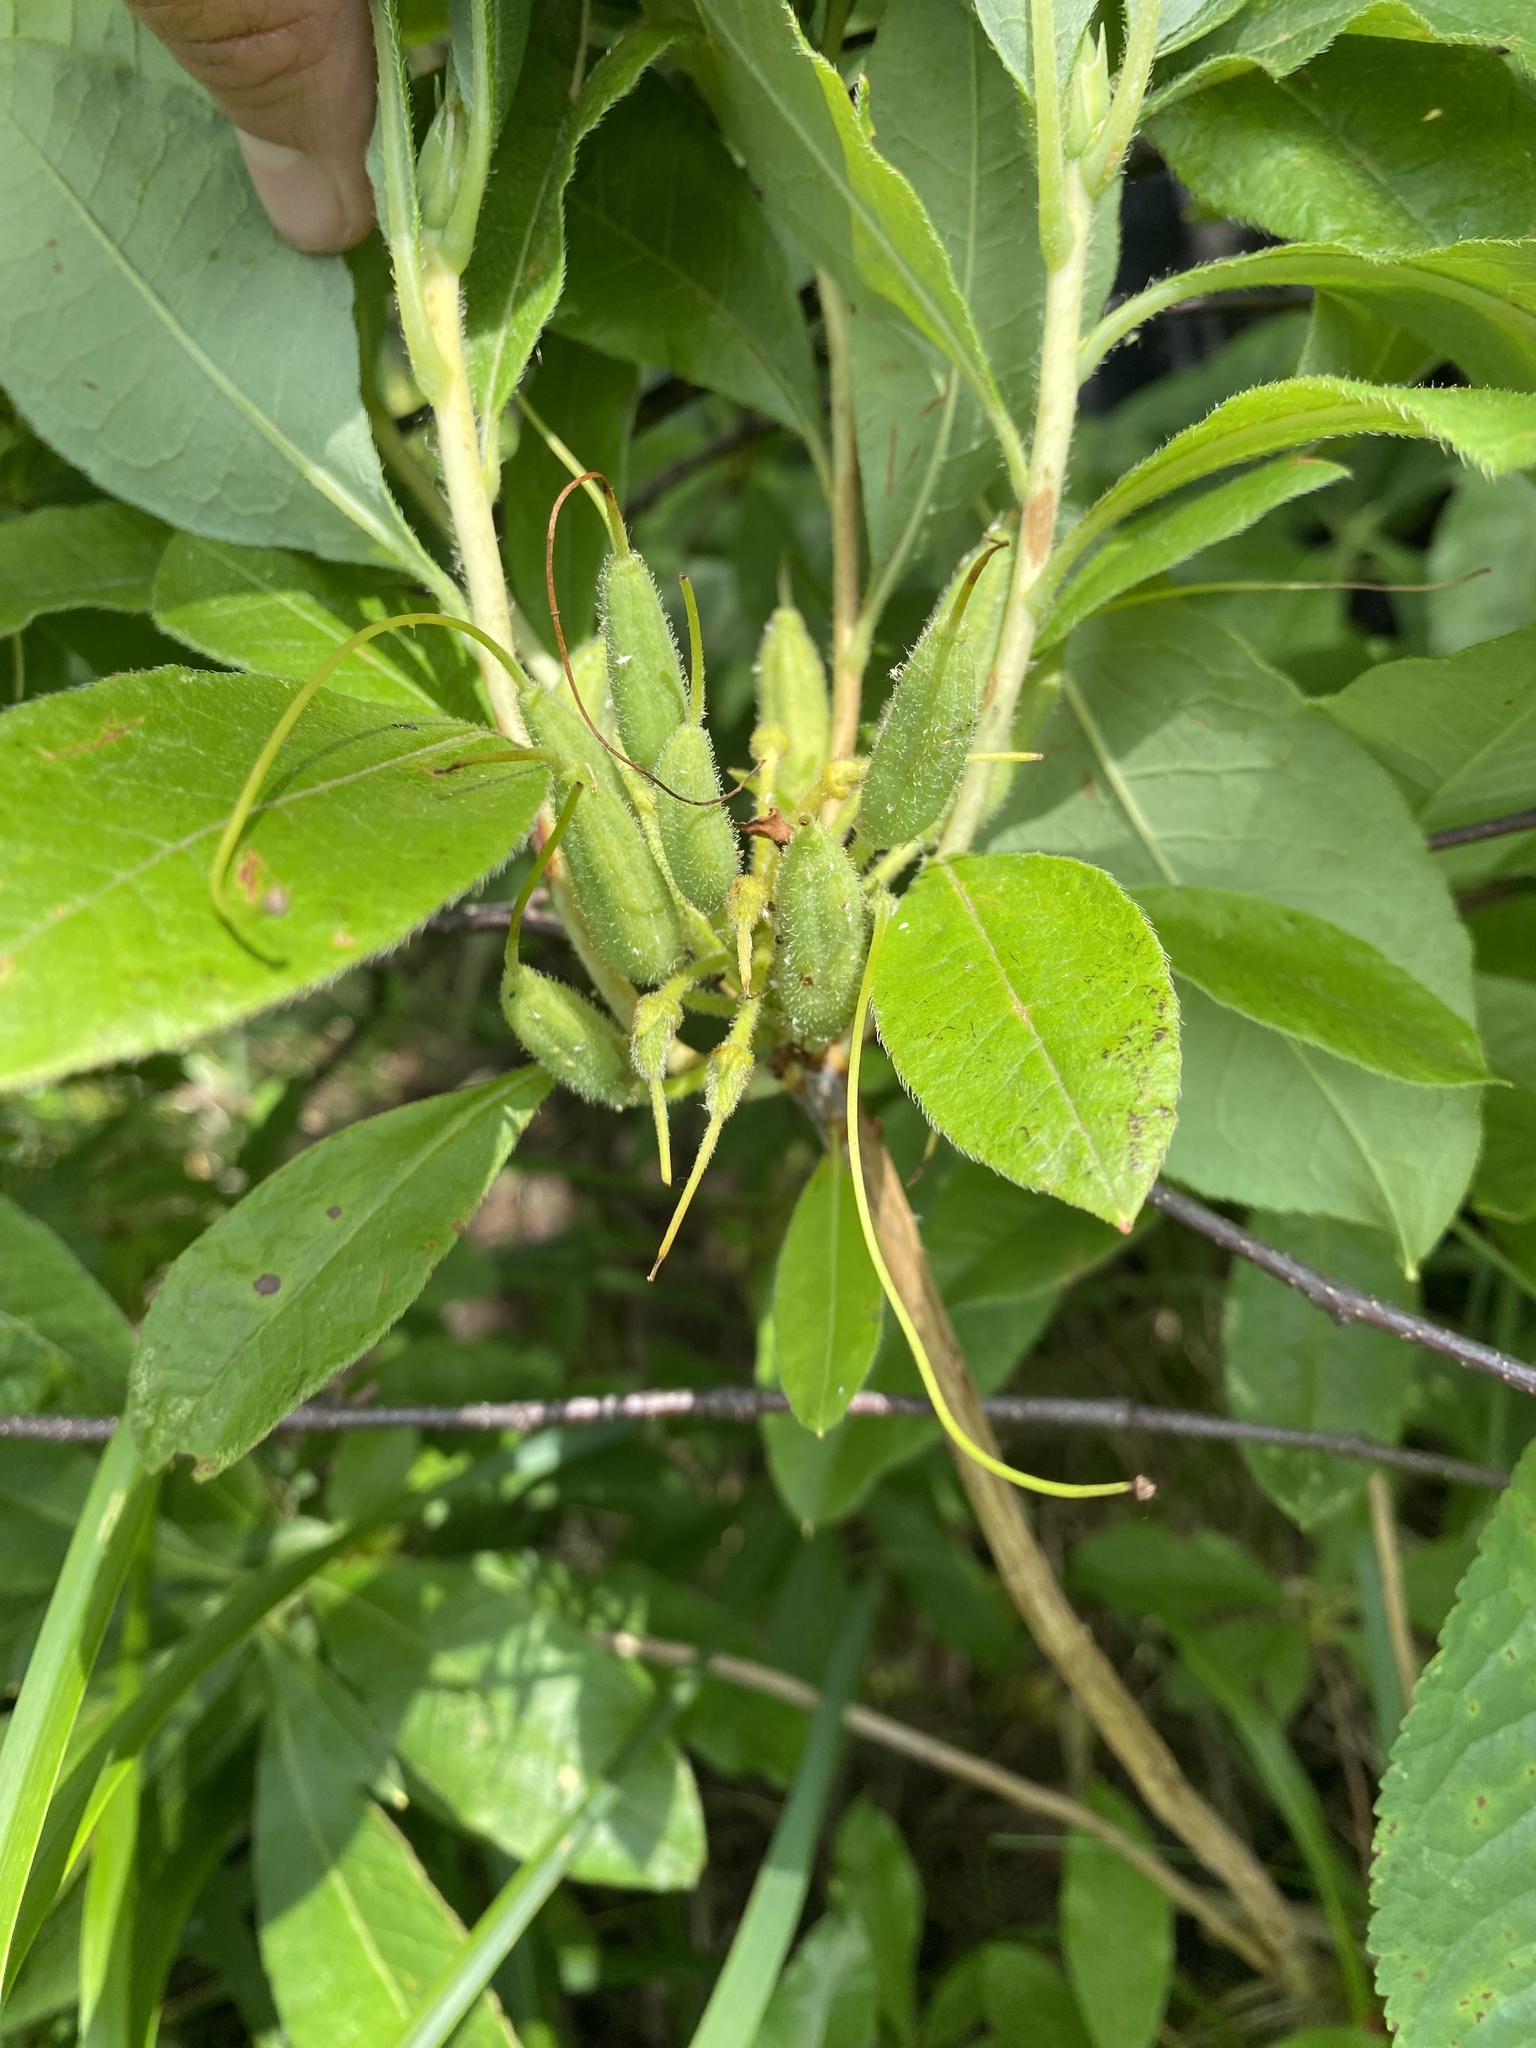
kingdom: Plantae
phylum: Tracheophyta
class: Magnoliopsida
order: Ericales
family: Ericaceae
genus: Rhododendron
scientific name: Rhododendron luteum
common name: Yellow azalea
